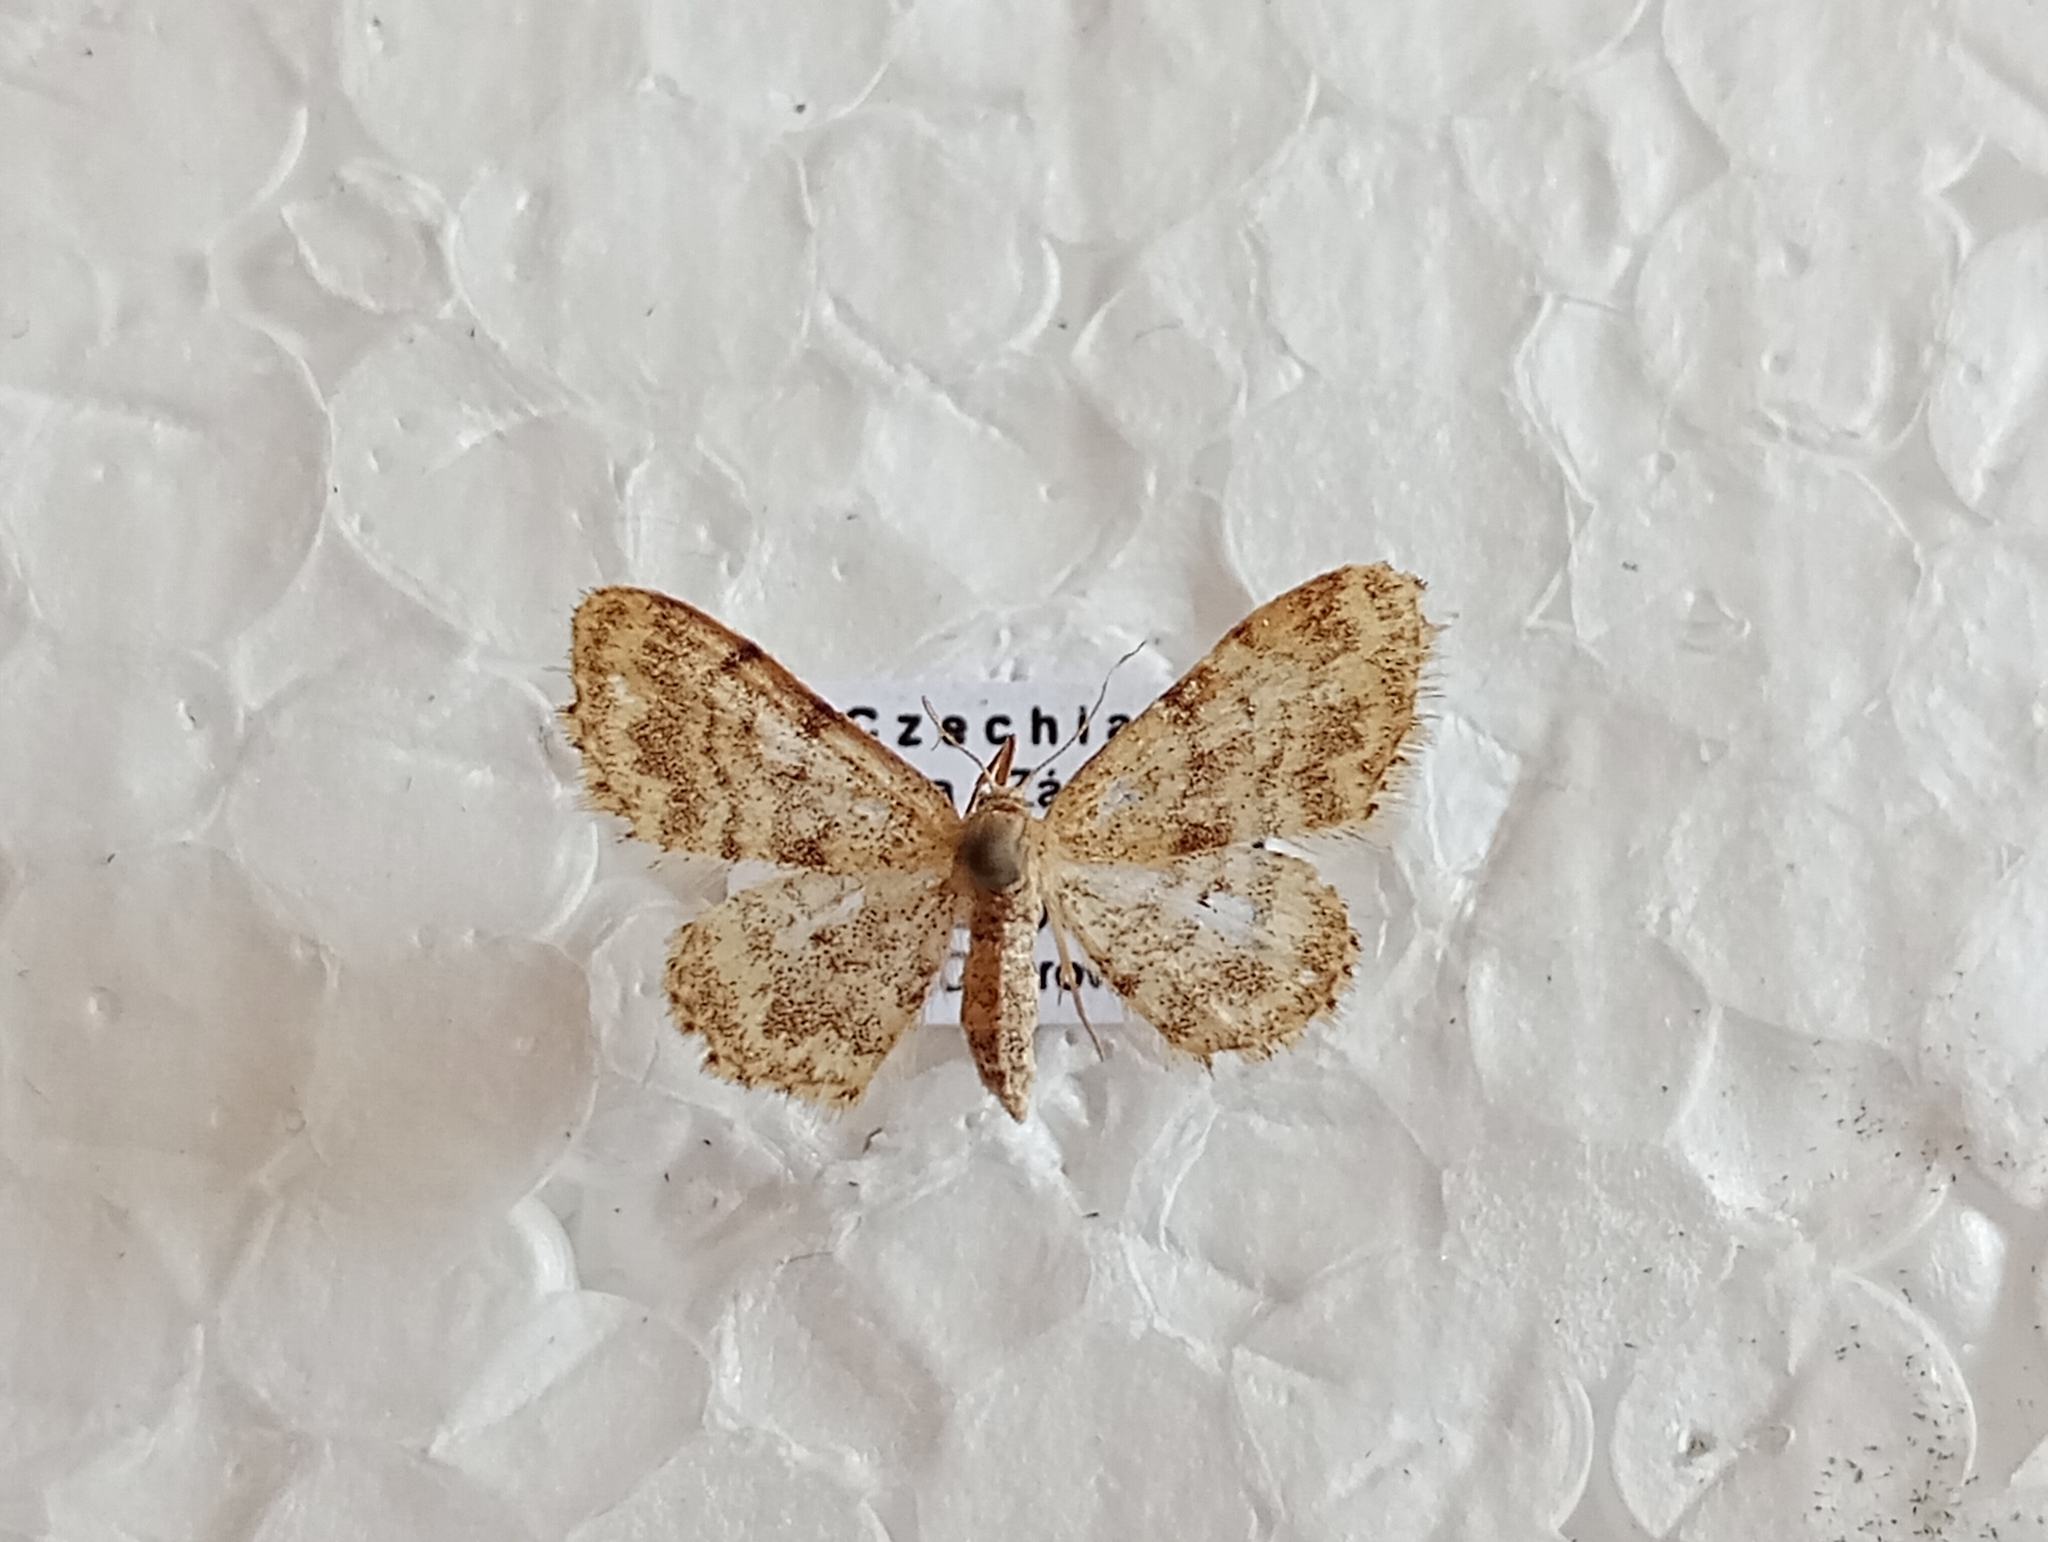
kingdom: Animalia
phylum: Arthropoda
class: Insecta
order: Lepidoptera
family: Geometridae
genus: Idaea
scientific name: Idaea inquinata
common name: Rusty wave
